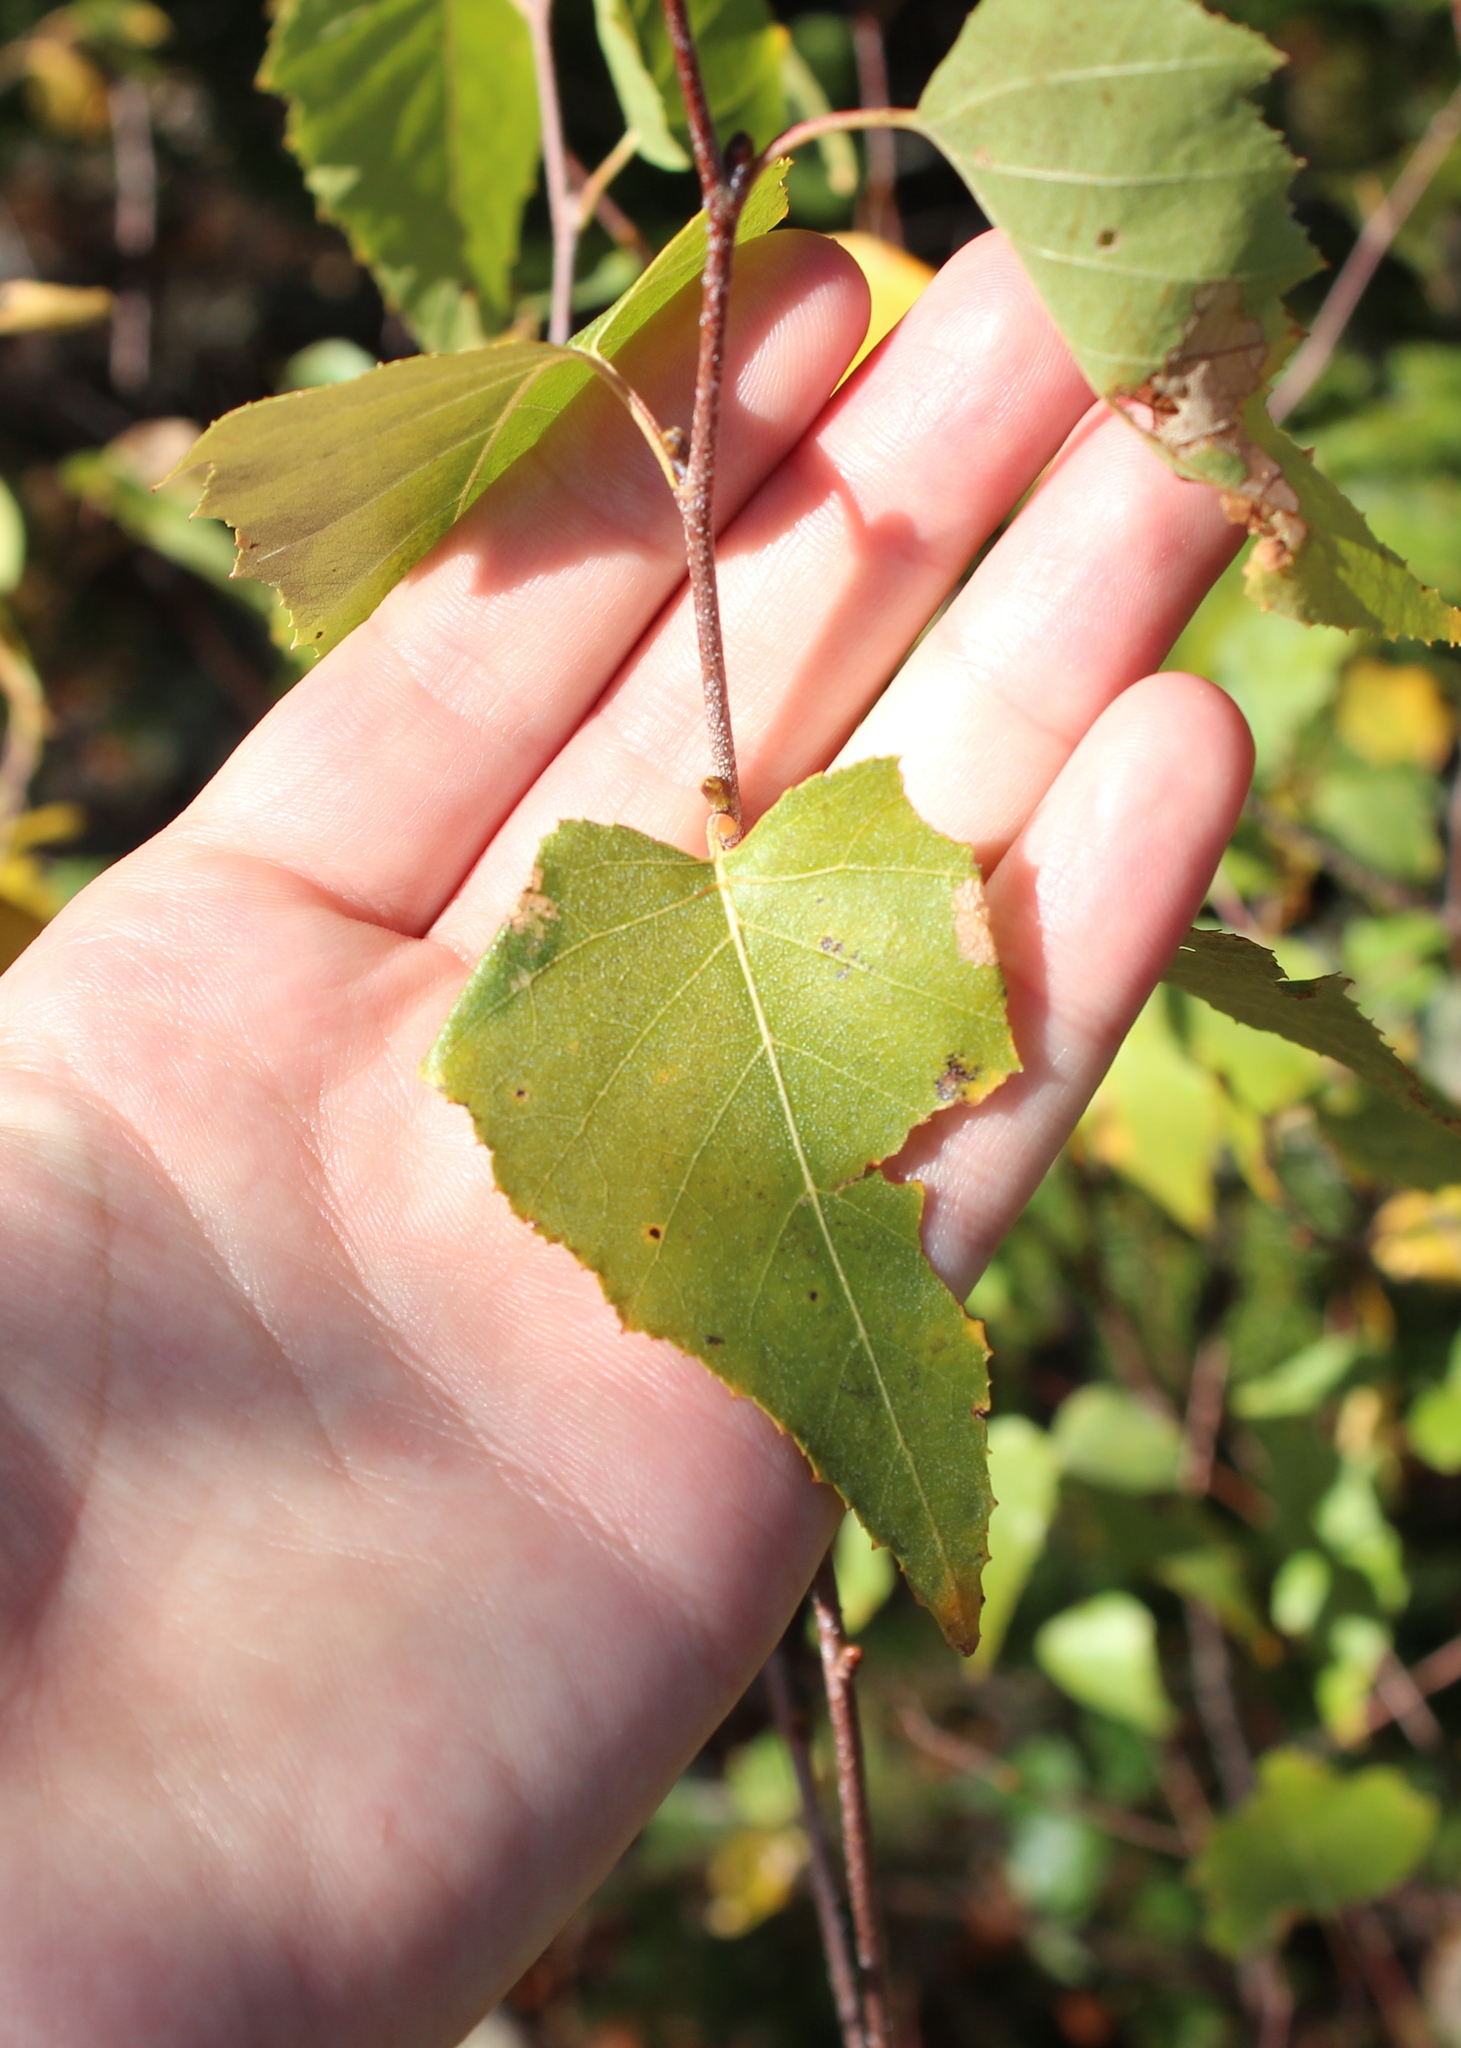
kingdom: Plantae
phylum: Tracheophyta
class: Magnoliopsida
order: Fagales
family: Betulaceae
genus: Betula
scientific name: Betula populifolia
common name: Fire birch
